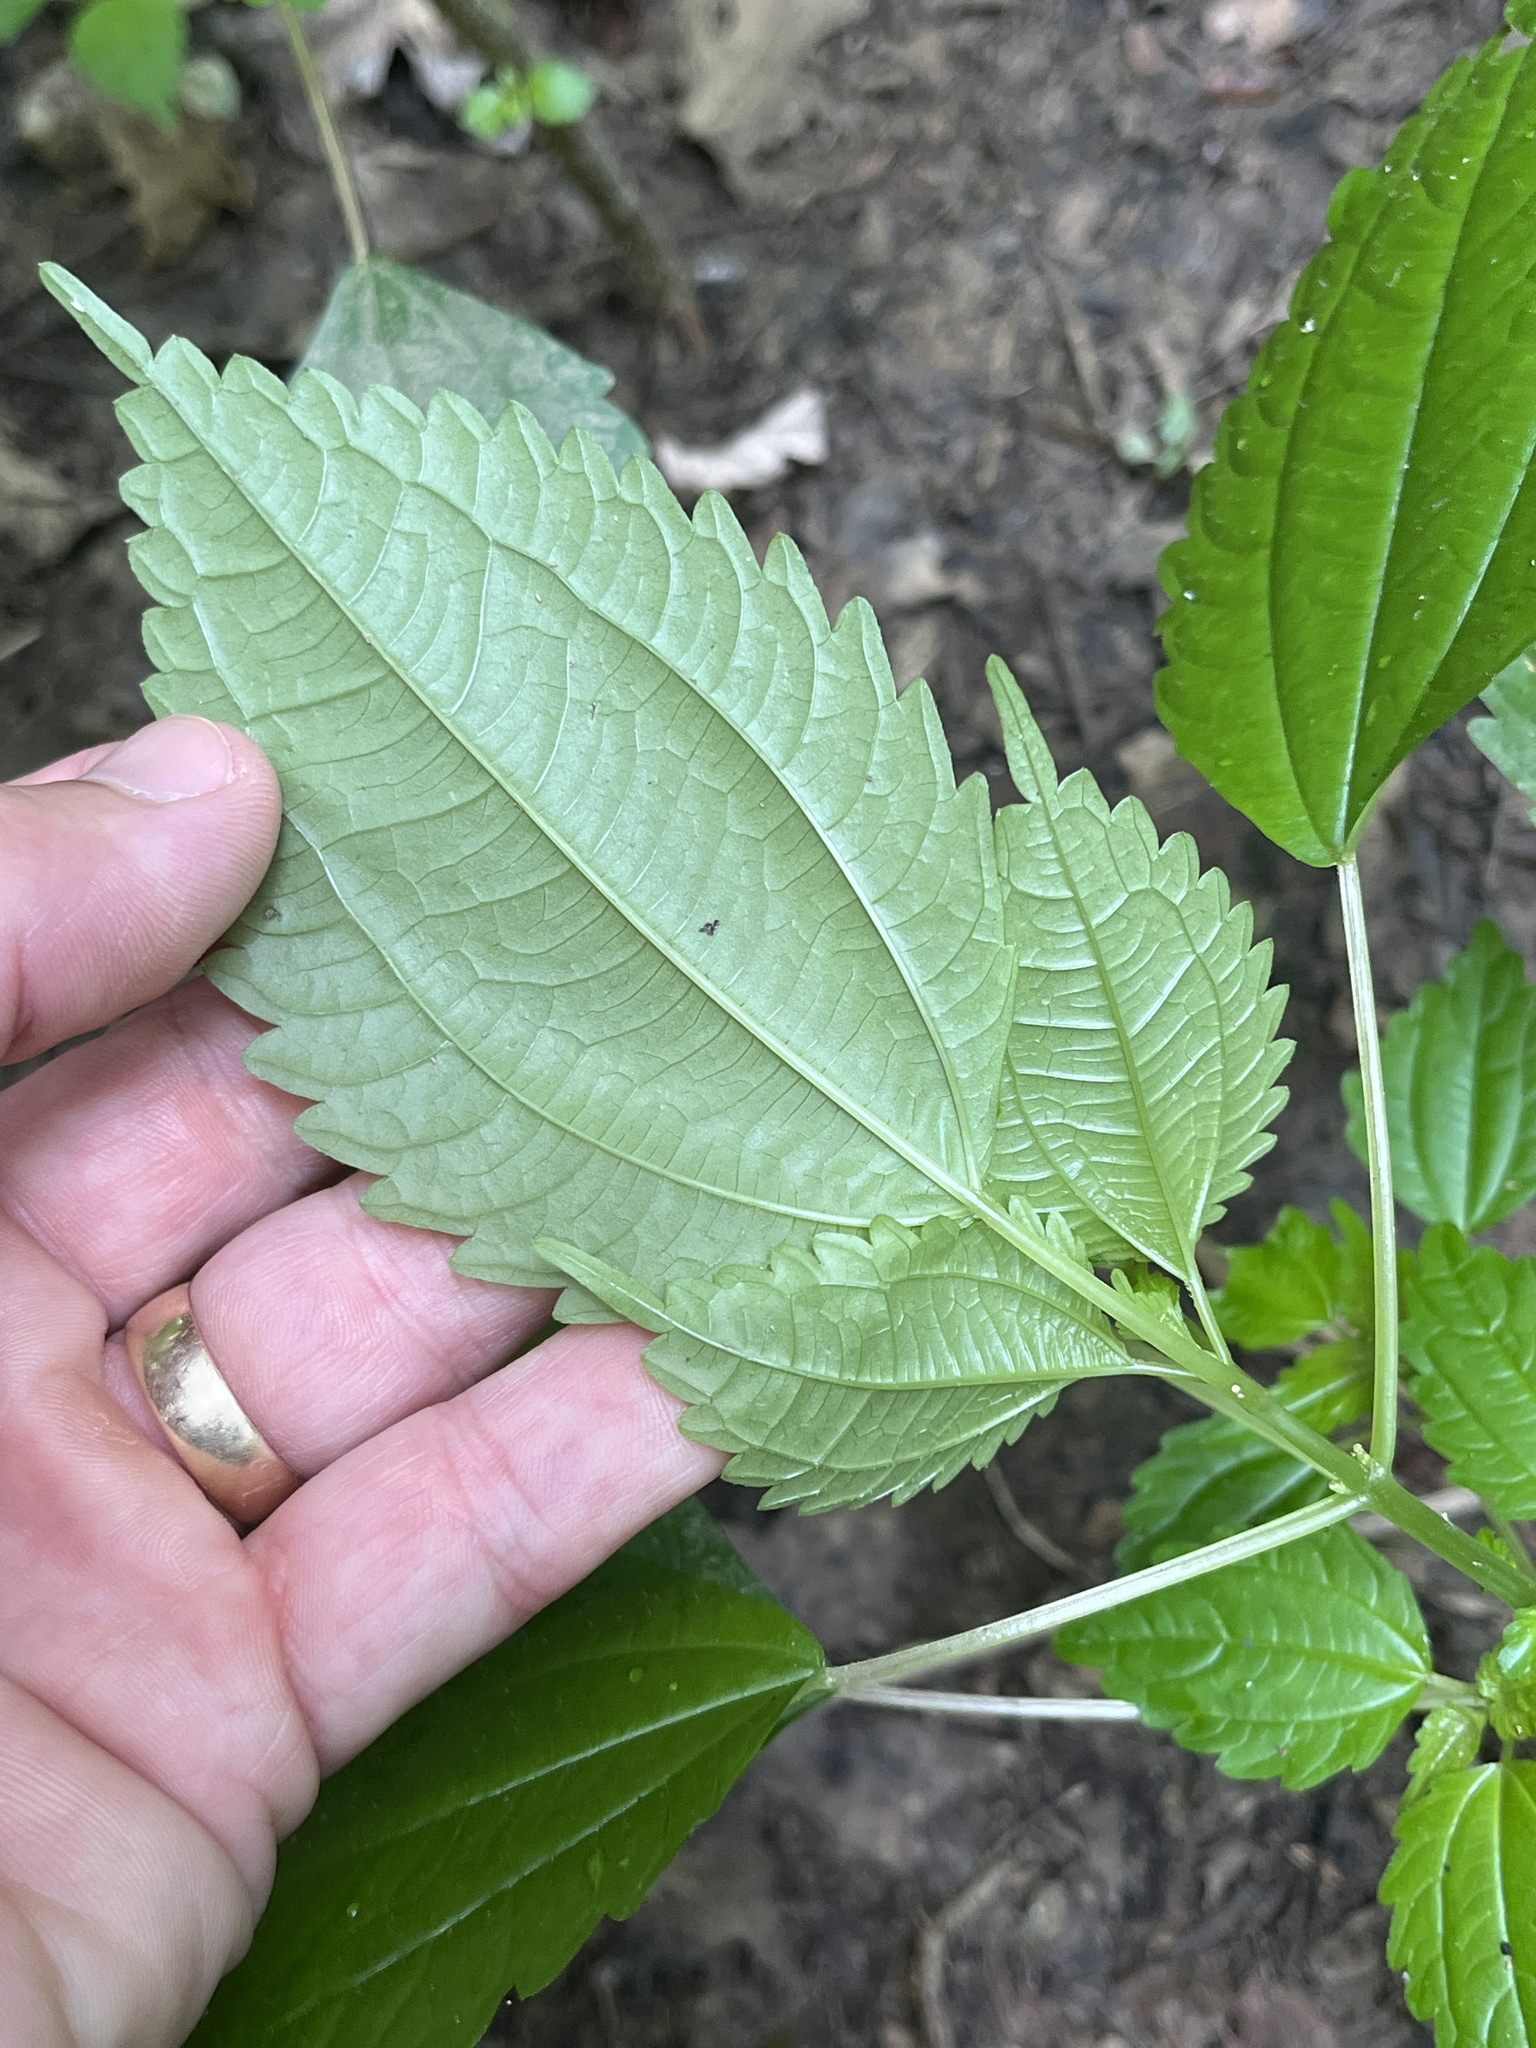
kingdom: Plantae
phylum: Tracheophyta
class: Magnoliopsida
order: Rosales
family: Urticaceae
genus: Pilea
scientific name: Pilea pumila
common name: Clearweed
